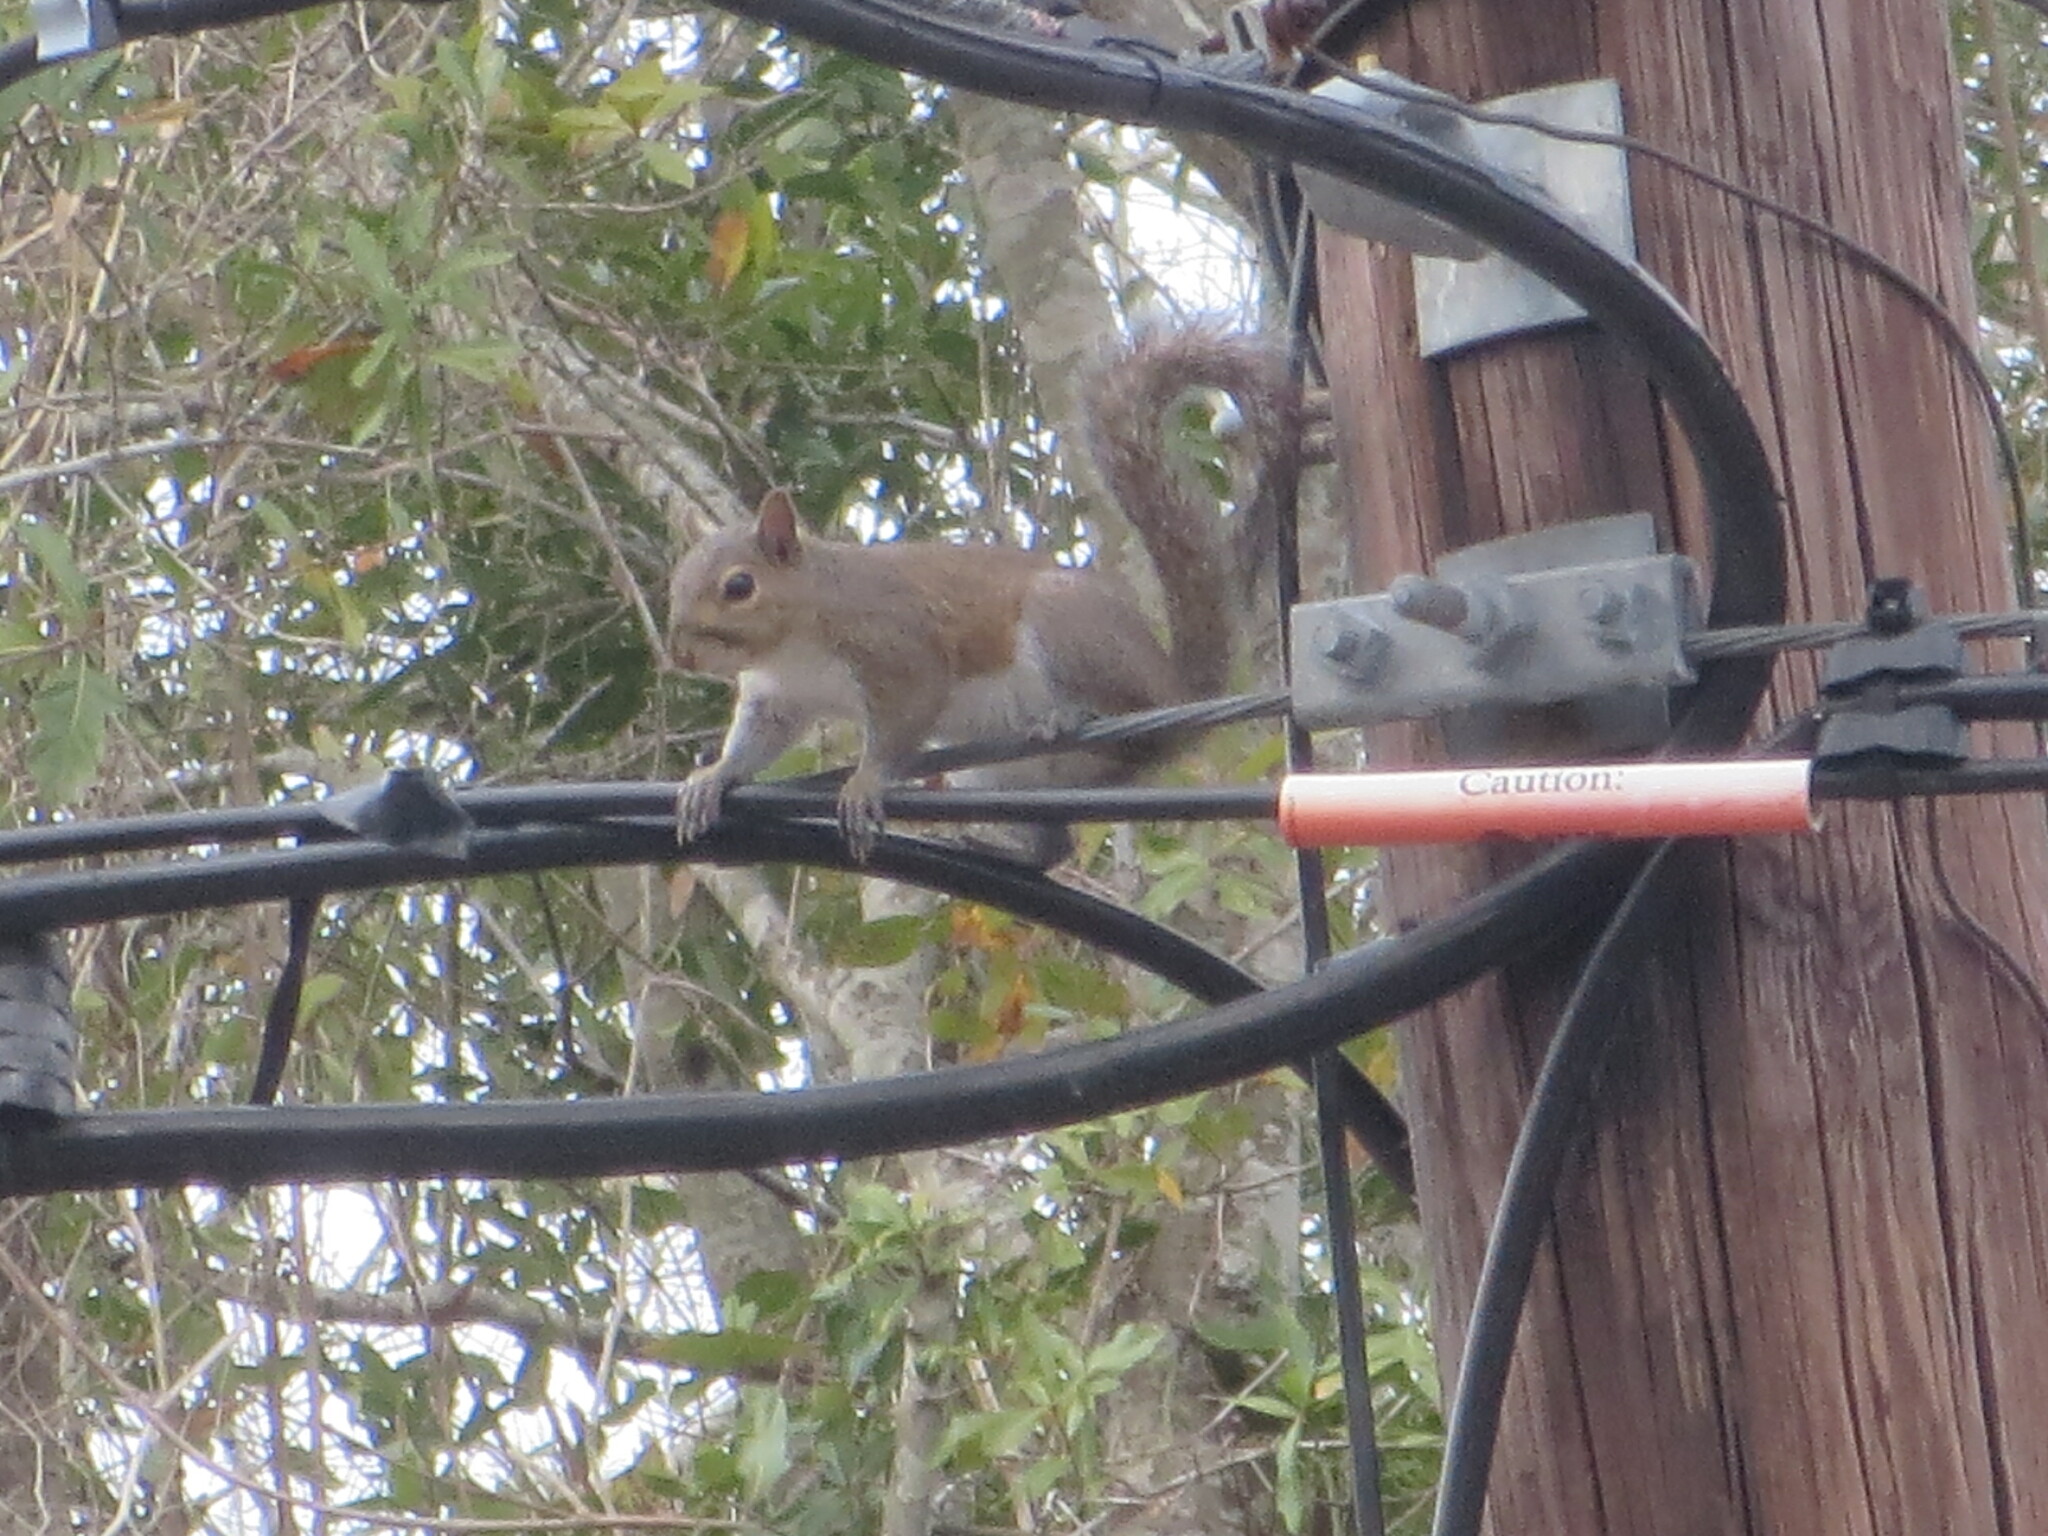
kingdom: Animalia
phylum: Chordata
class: Mammalia
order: Rodentia
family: Sciuridae
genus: Sciurus
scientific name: Sciurus carolinensis
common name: Eastern gray squirrel
